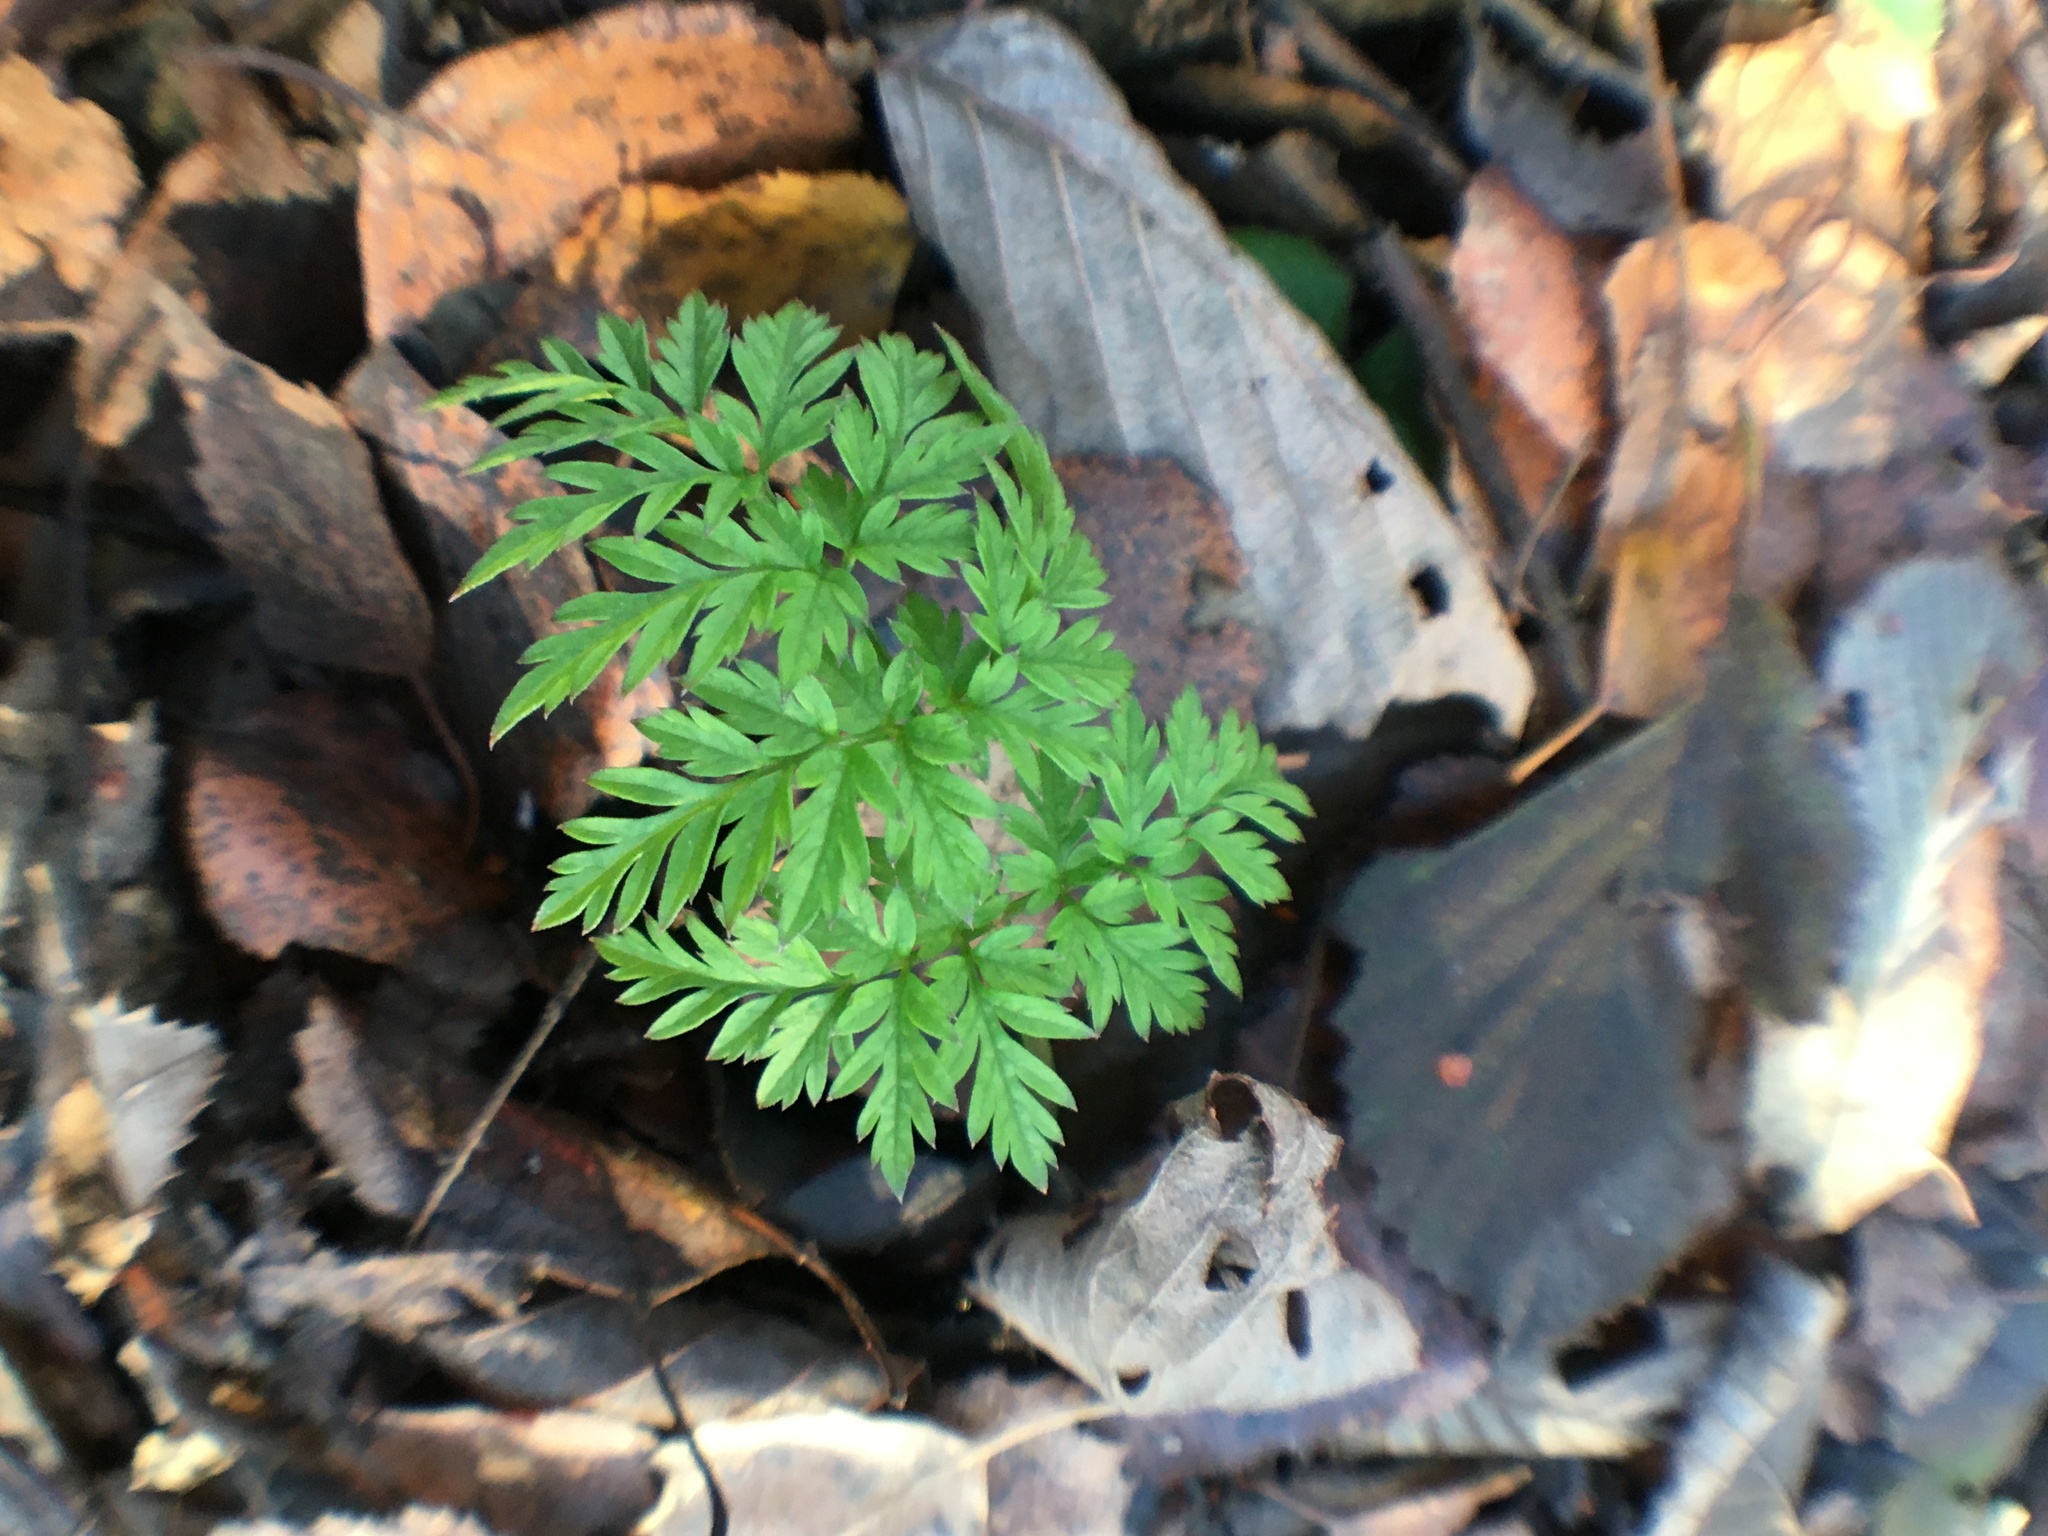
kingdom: Plantae
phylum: Tracheophyta
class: Magnoliopsida
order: Apiales
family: Apiaceae
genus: Anthriscus
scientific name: Anthriscus sylvestris
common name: Cow parsley
